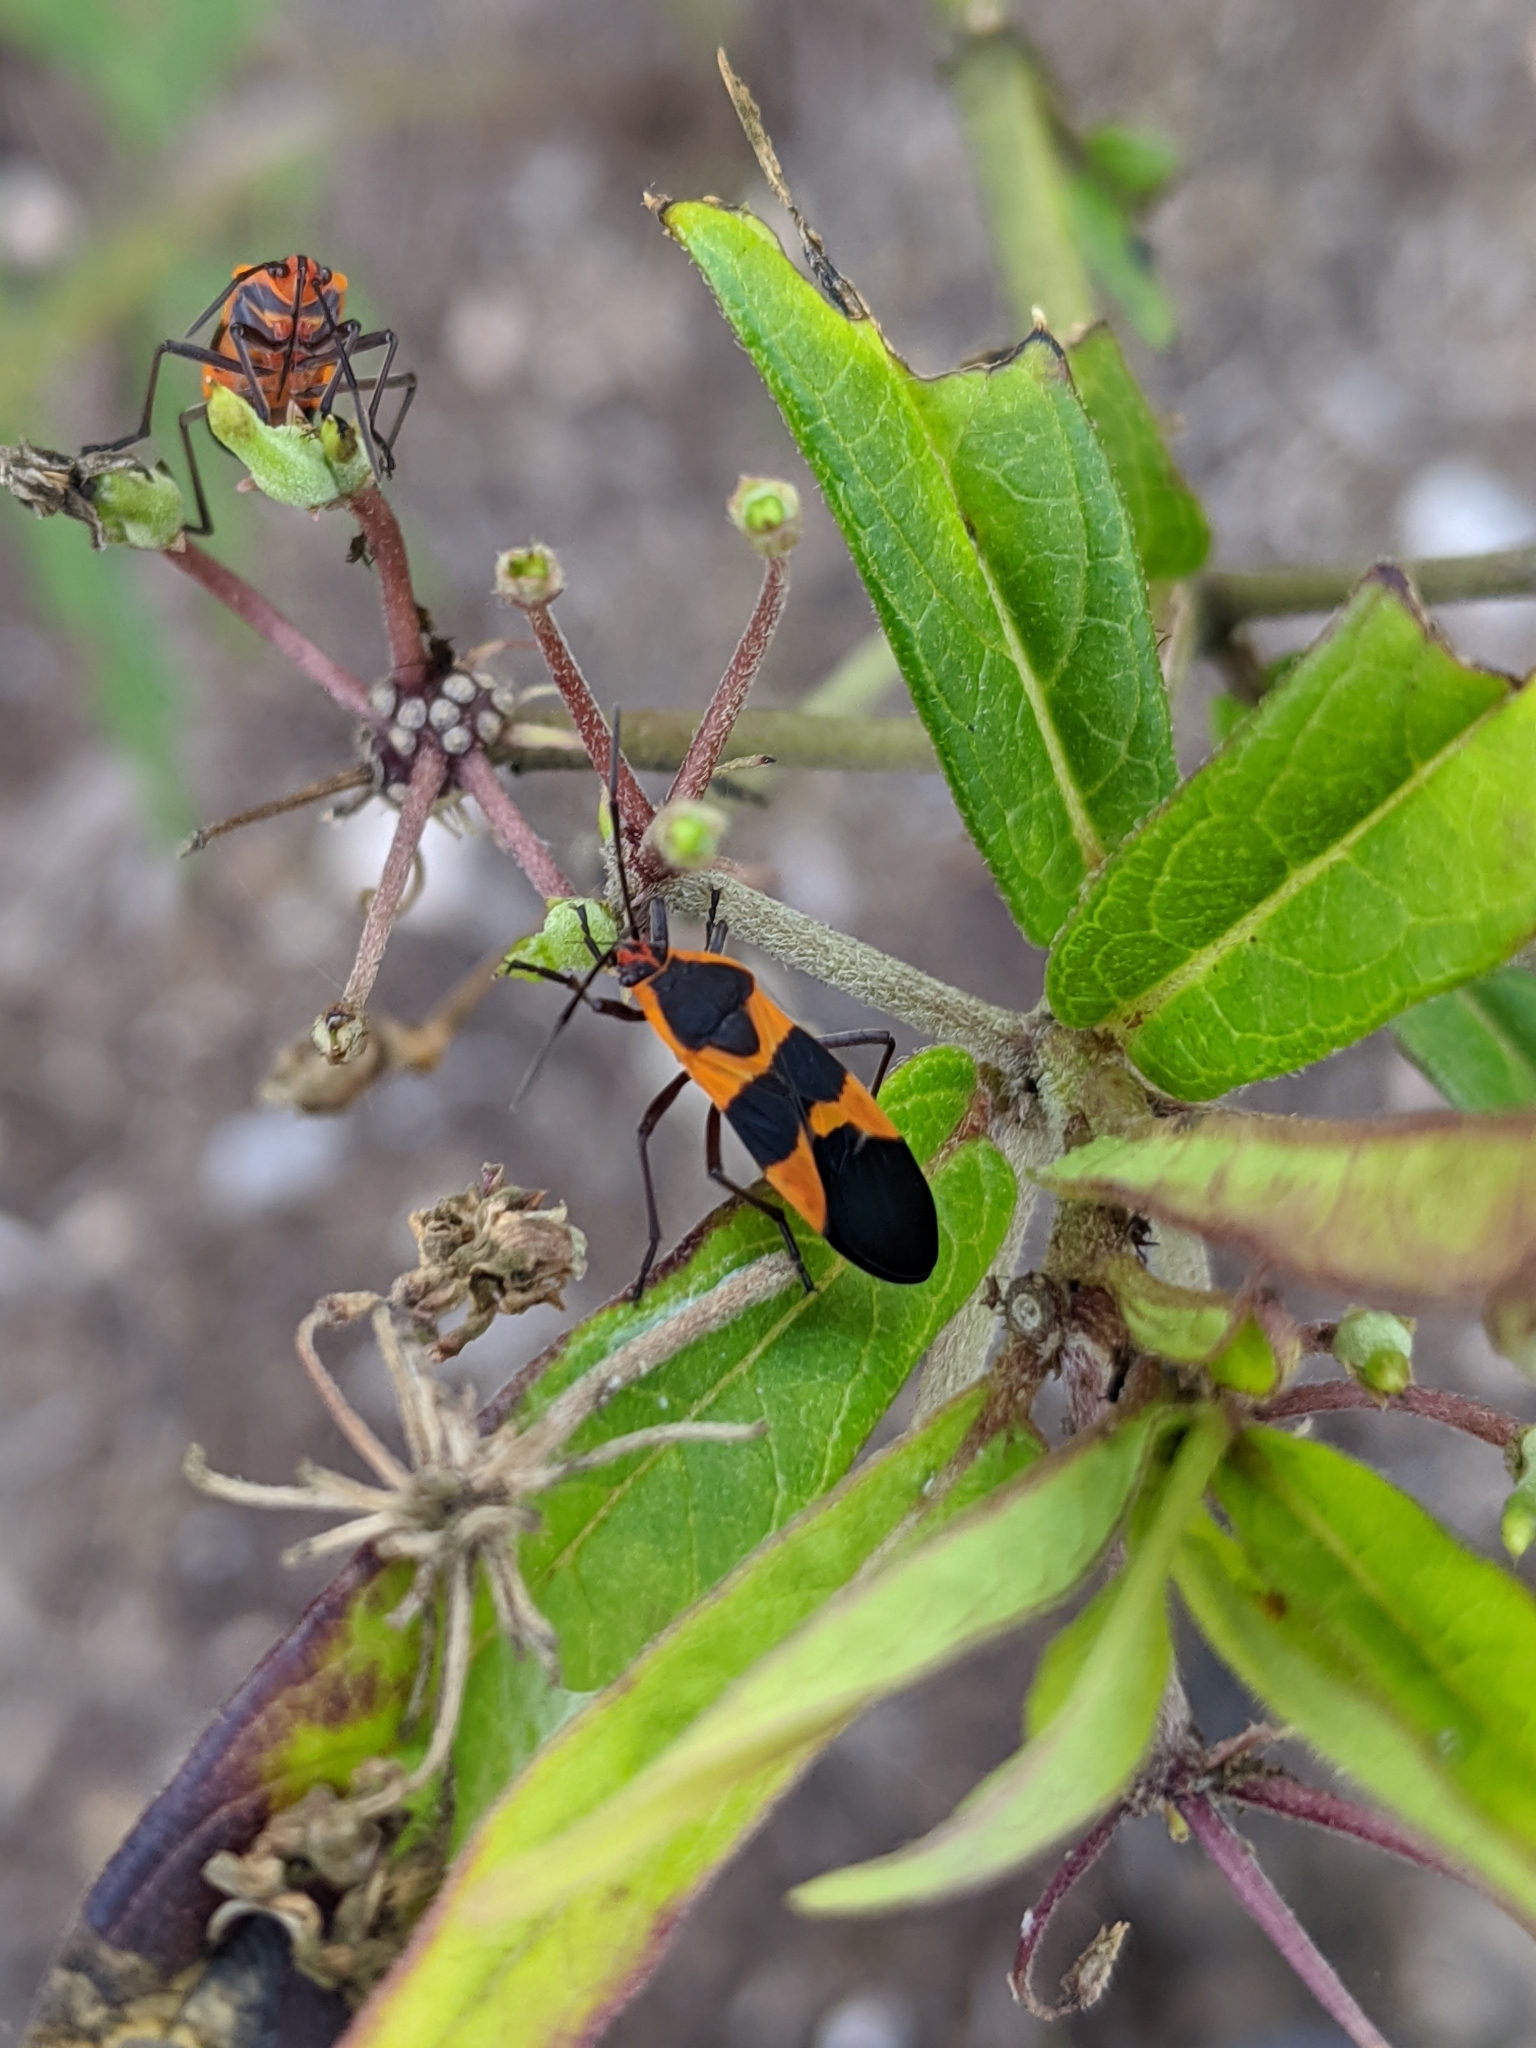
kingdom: Animalia
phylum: Arthropoda
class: Insecta
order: Hemiptera
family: Lygaeidae
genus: Oncopeltus
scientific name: Oncopeltus fasciatus
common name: Large milkweed bug
